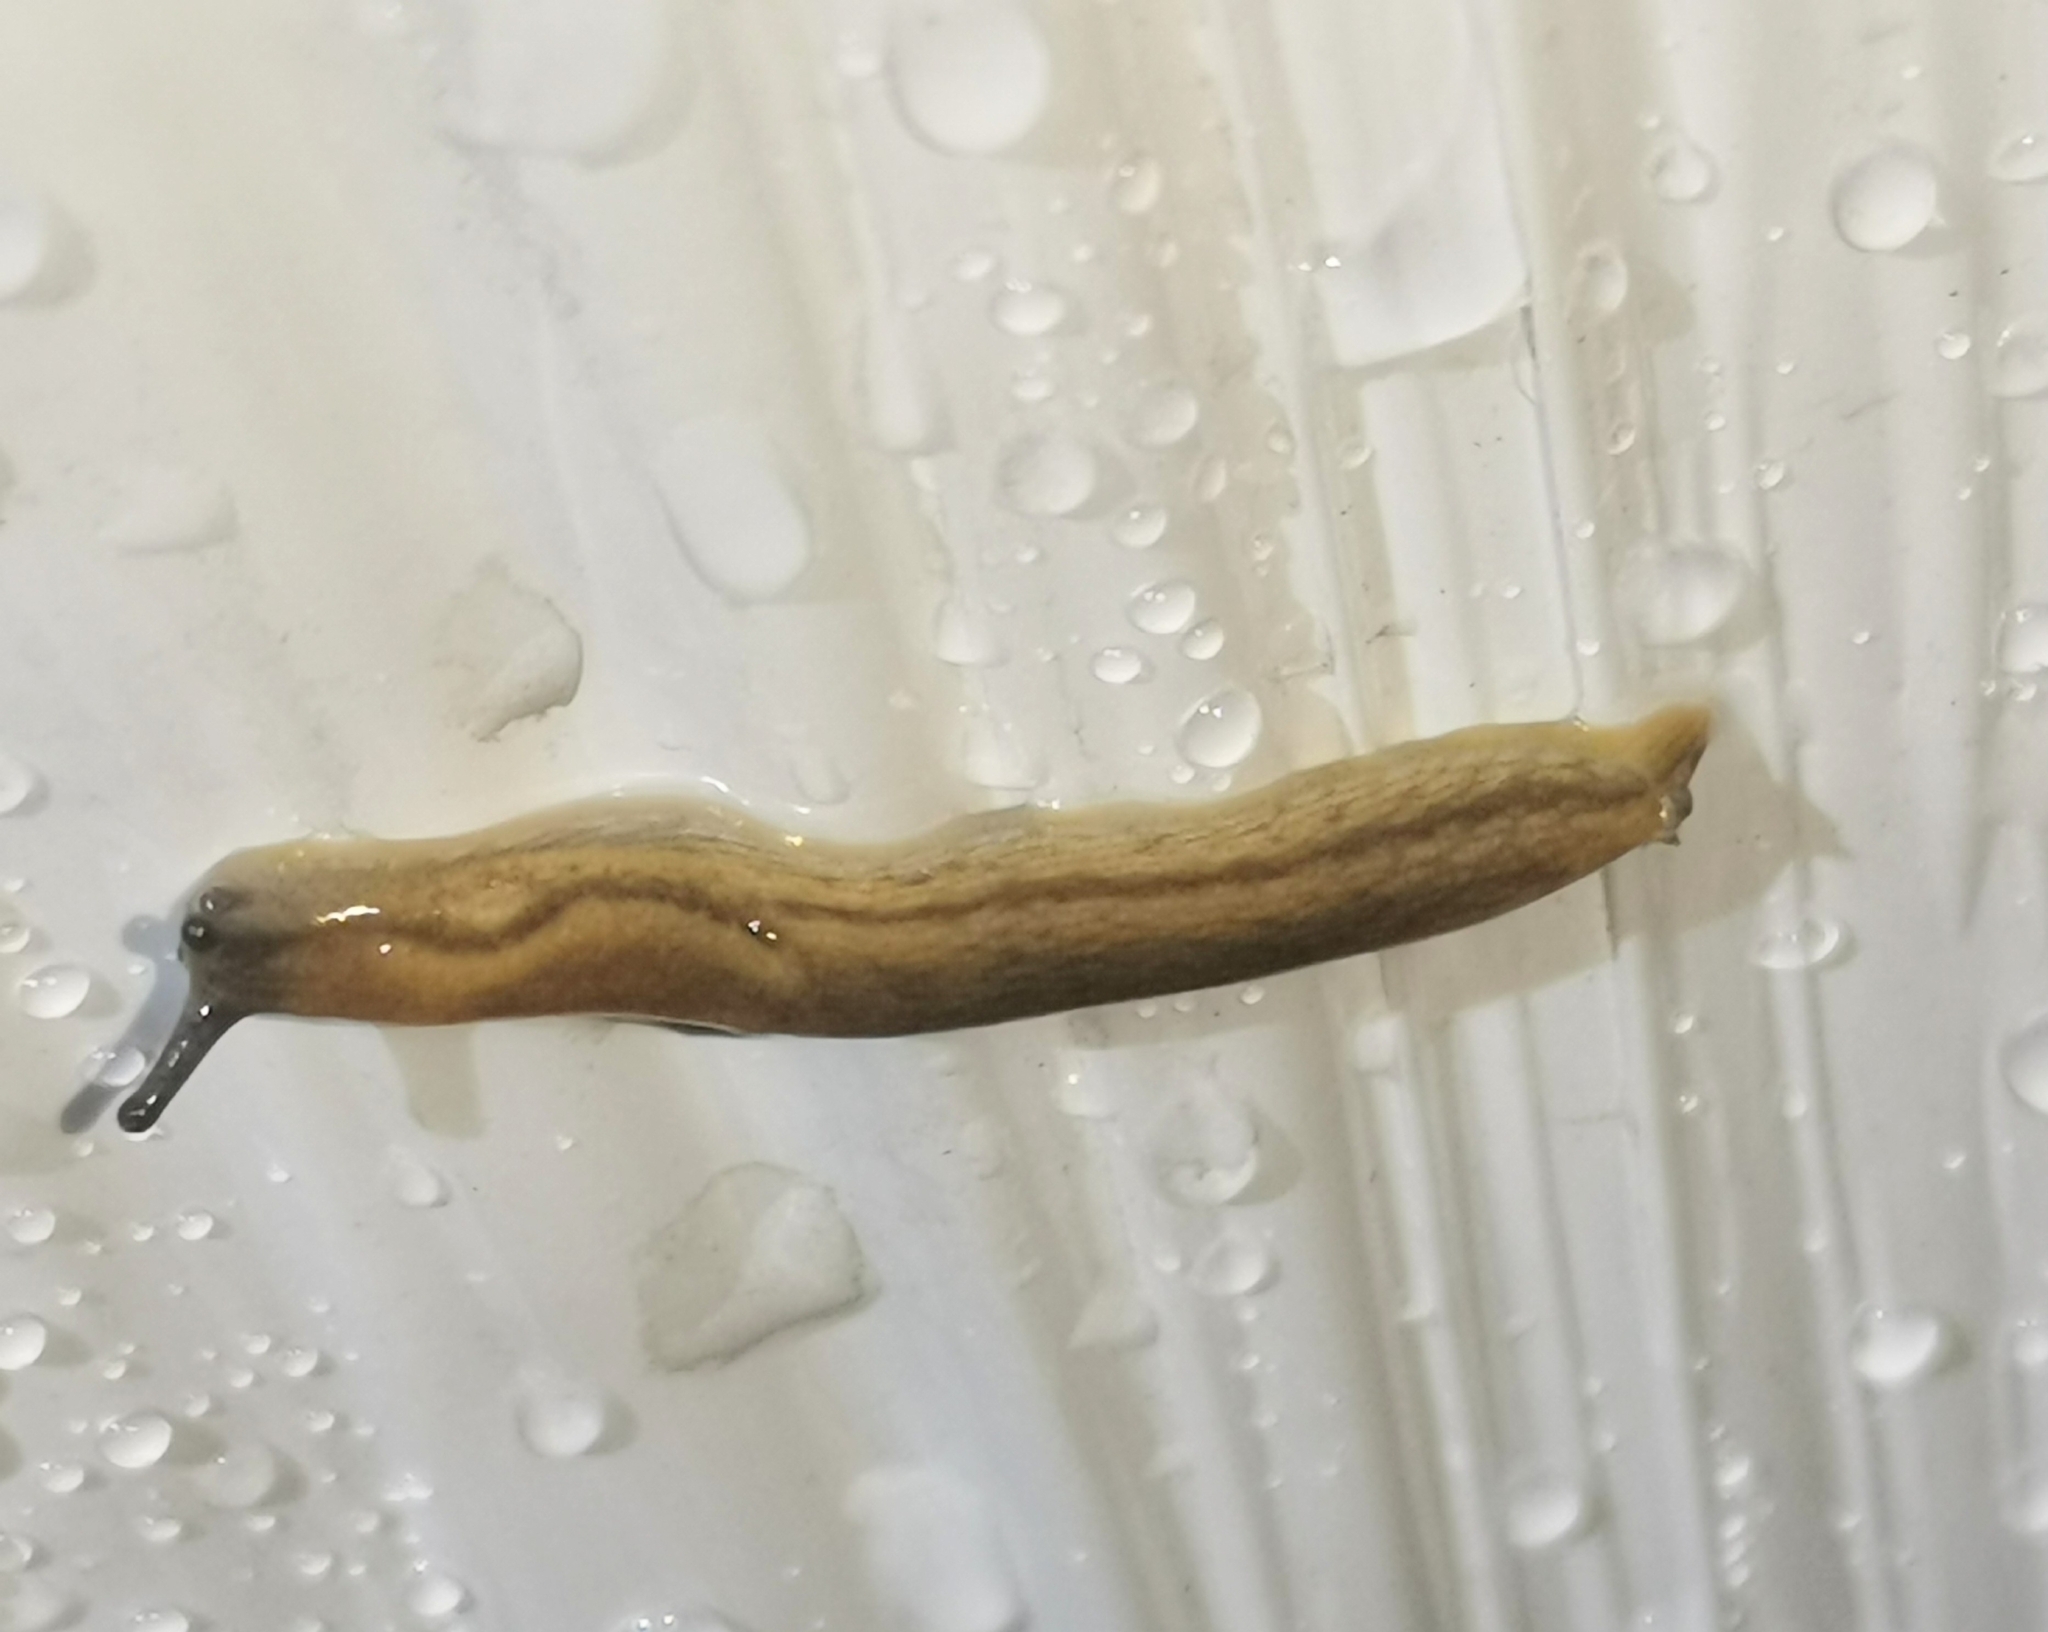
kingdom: Animalia
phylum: Mollusca
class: Gastropoda
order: Stylommatophora
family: Arionidae
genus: Arion
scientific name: Arion fuscus
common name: Northern dusky slug
